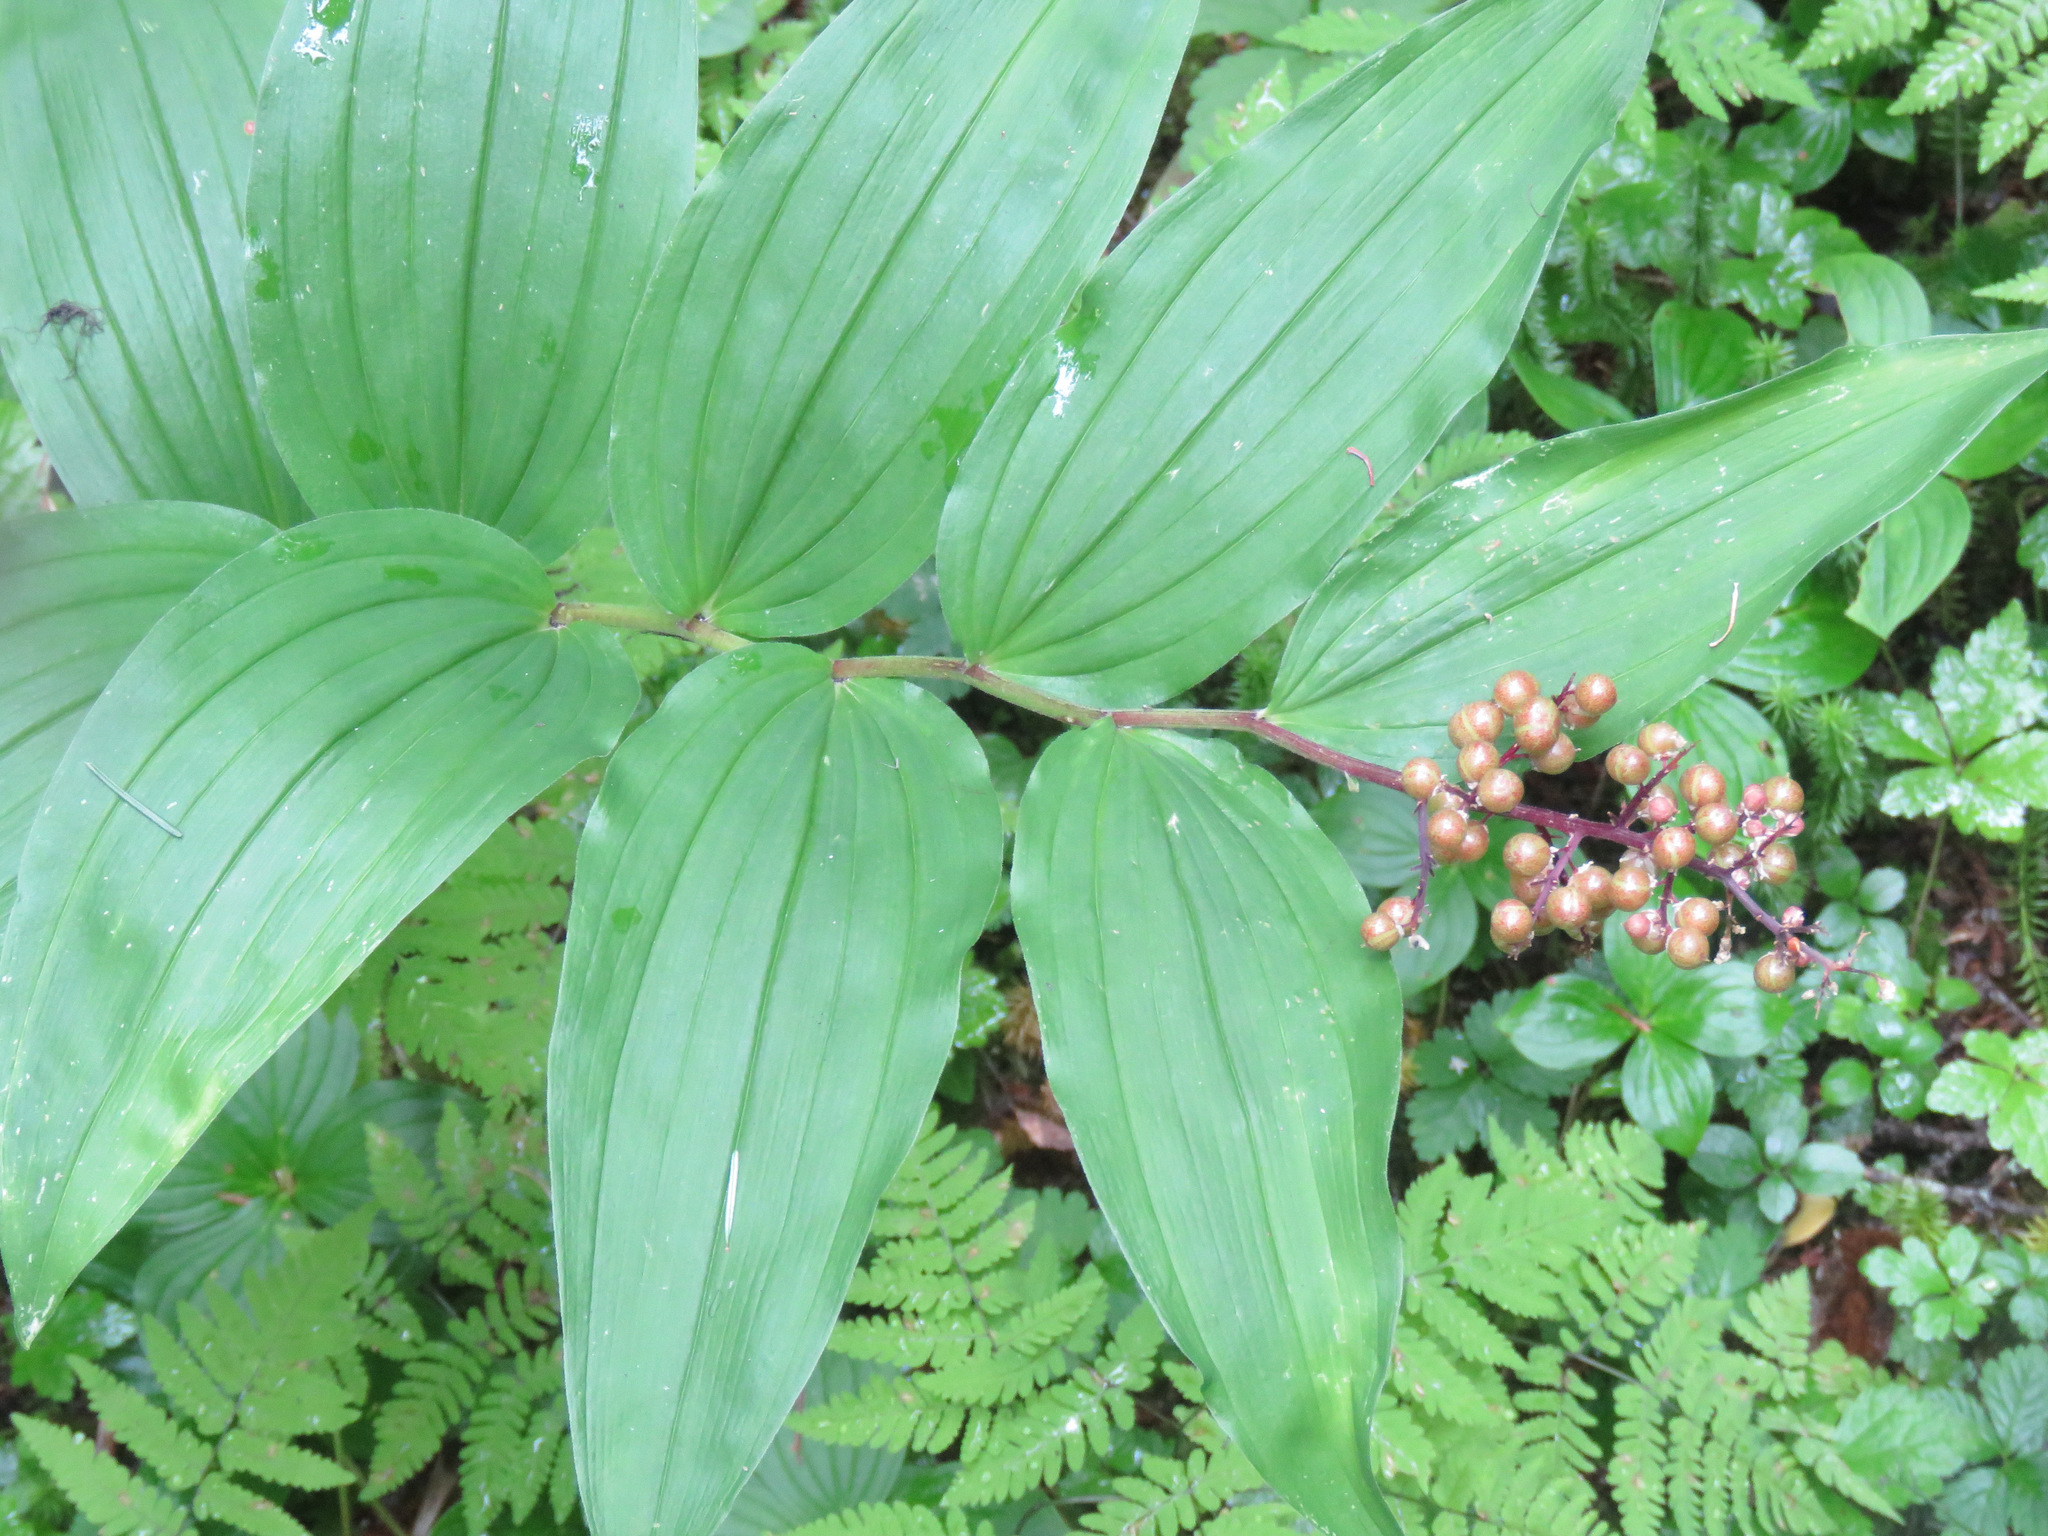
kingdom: Plantae
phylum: Tracheophyta
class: Liliopsida
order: Asparagales
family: Asparagaceae
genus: Maianthemum
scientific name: Maianthemum racemosum
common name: False spikenard
